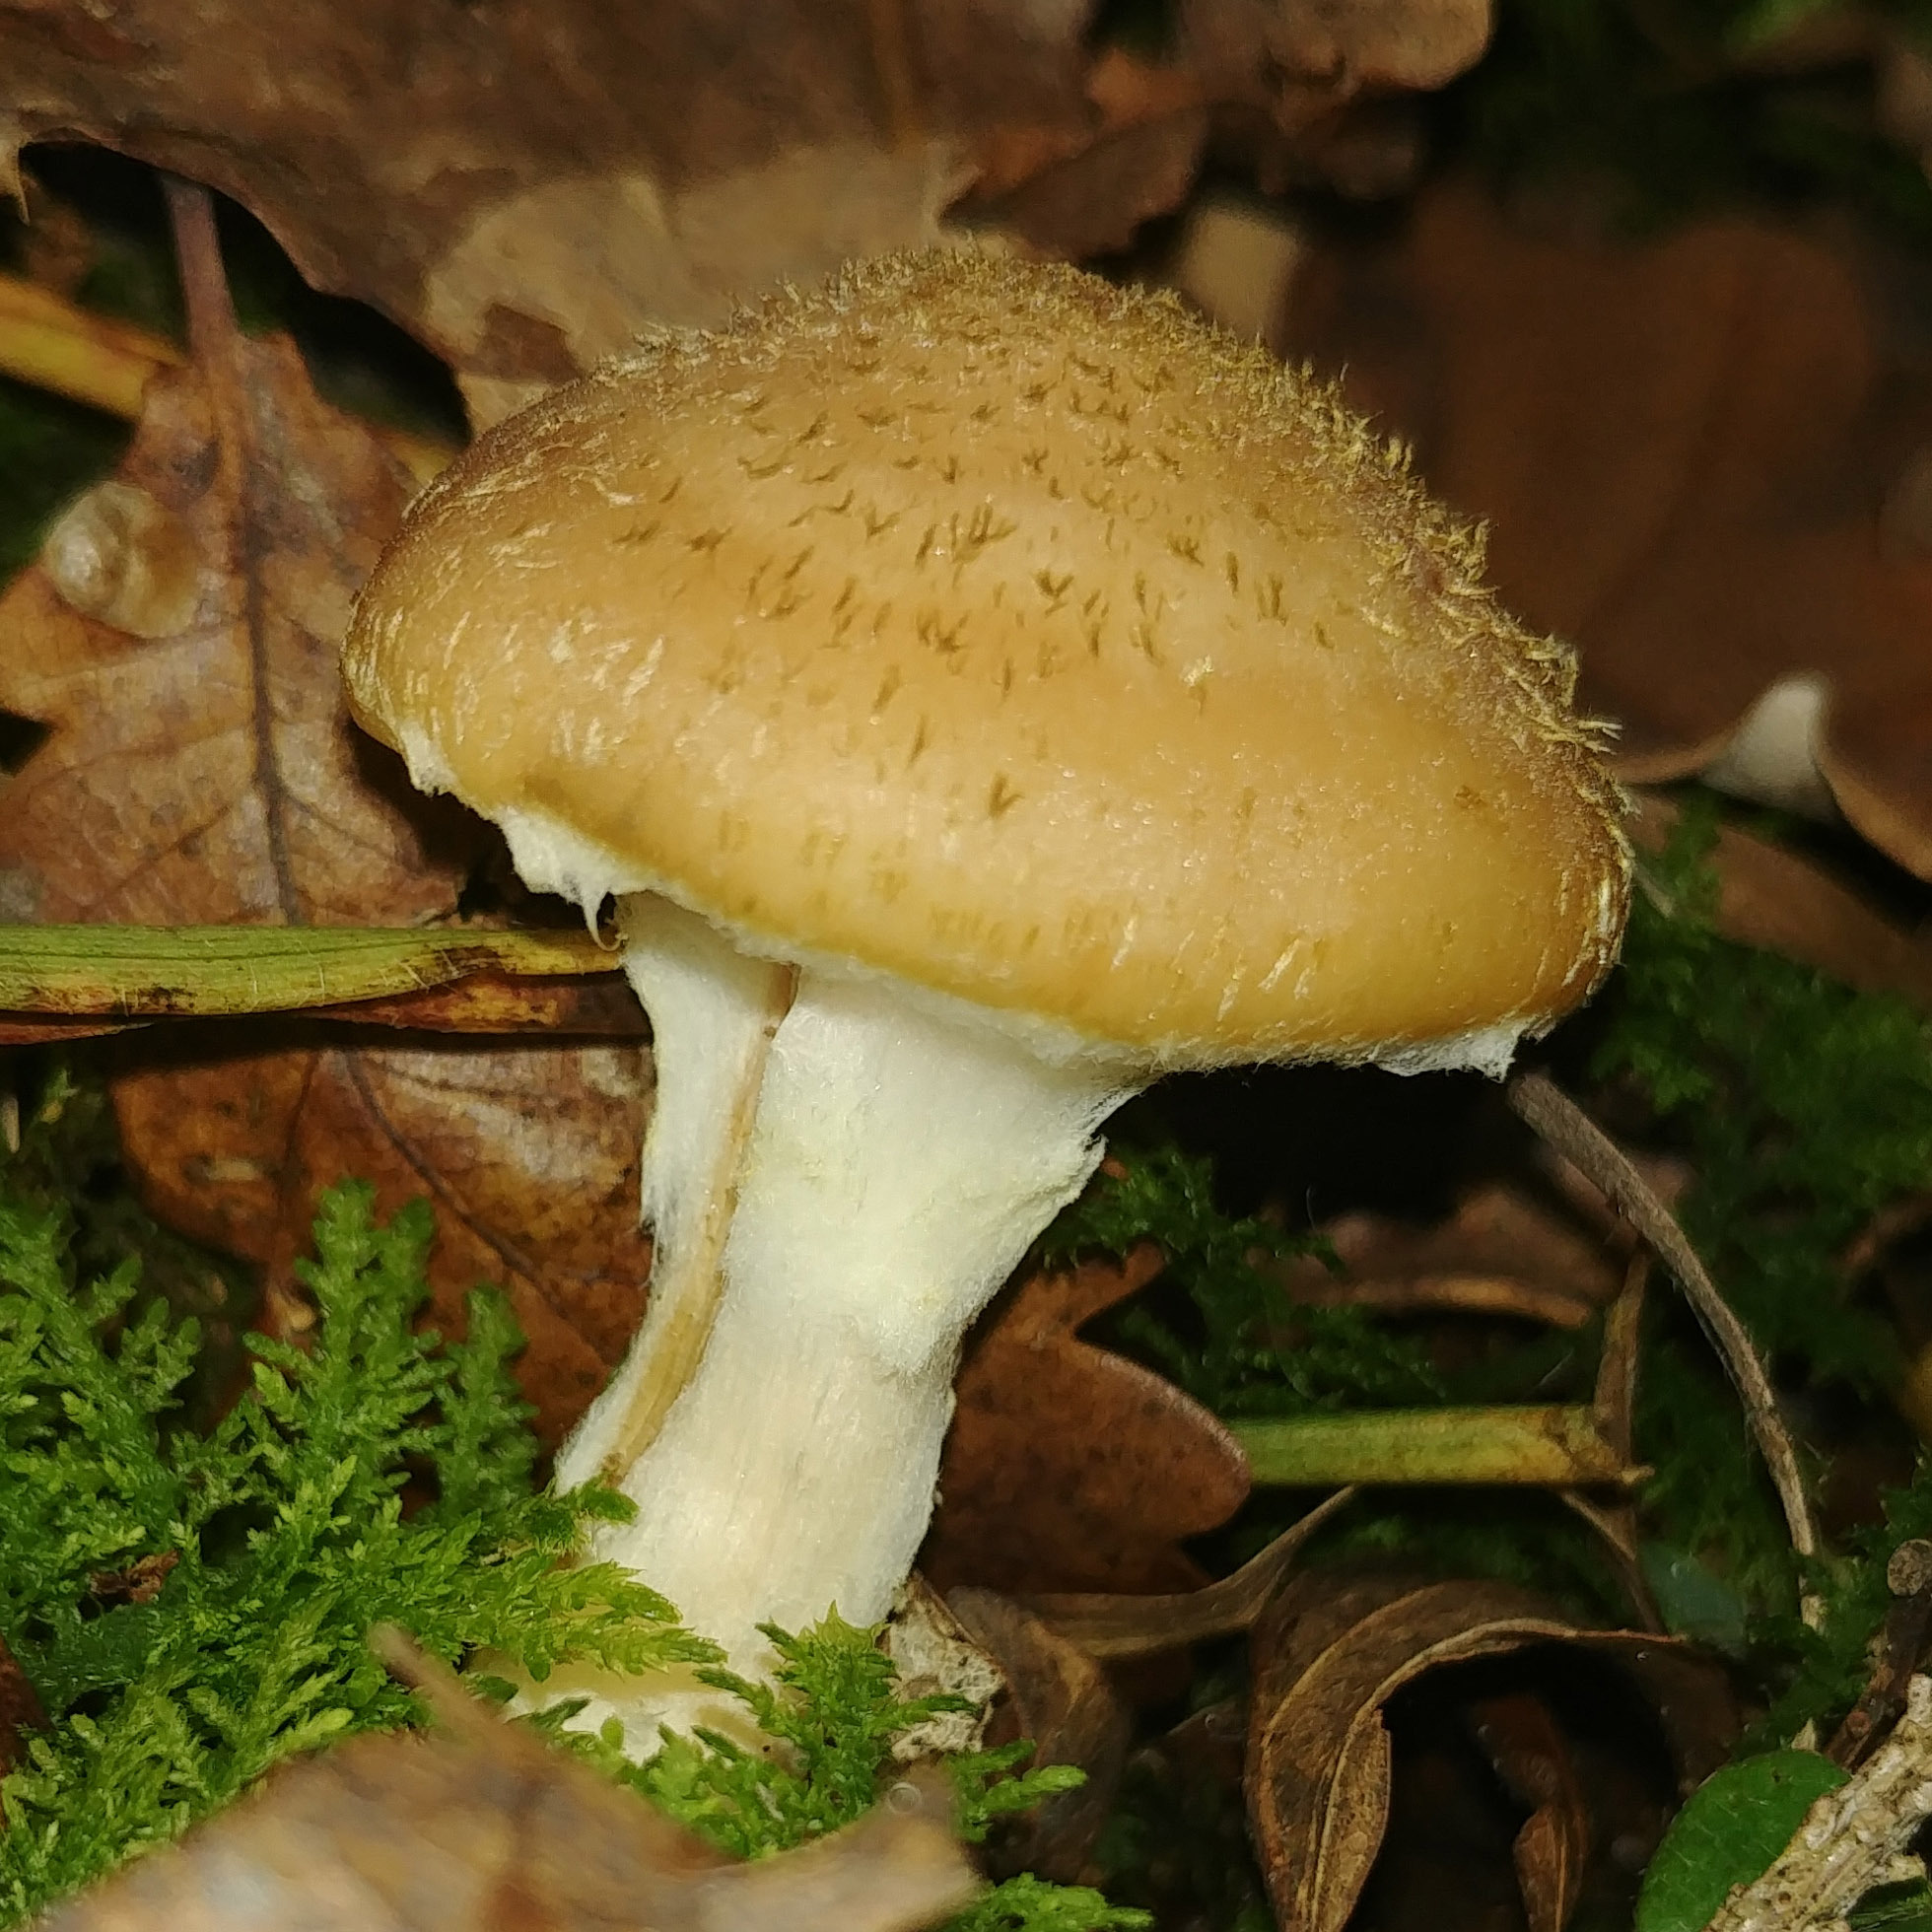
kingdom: Fungi
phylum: Basidiomycota
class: Agaricomycetes
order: Agaricales
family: Physalacriaceae
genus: Armillaria
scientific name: Armillaria gallica
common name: Bulbous honey fungus
